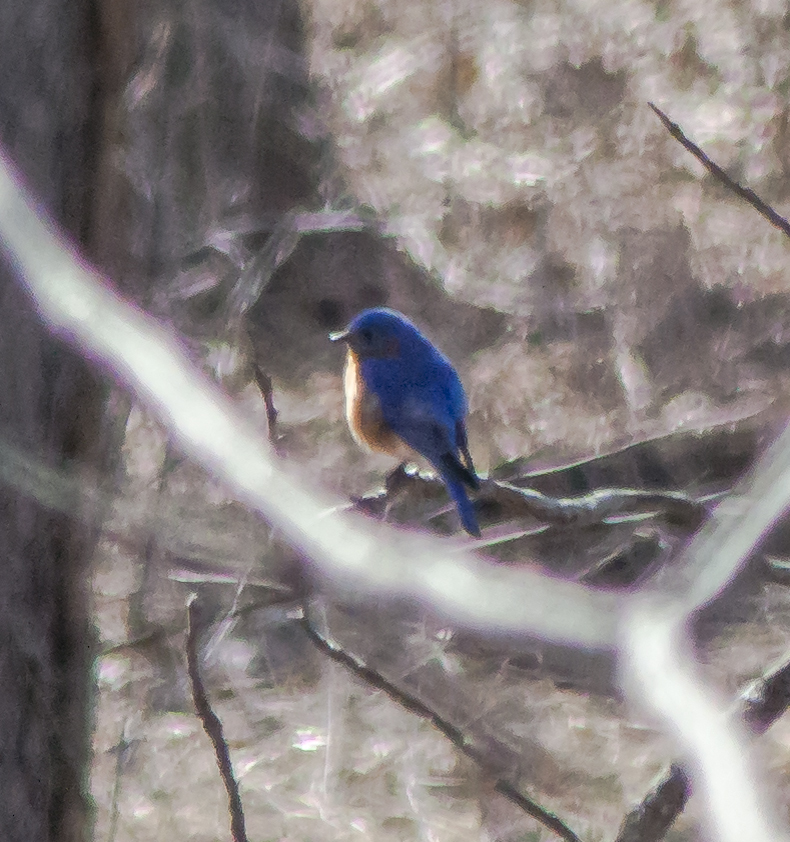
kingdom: Animalia
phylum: Chordata
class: Aves
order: Passeriformes
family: Turdidae
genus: Sialia
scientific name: Sialia sialis
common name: Eastern bluebird
